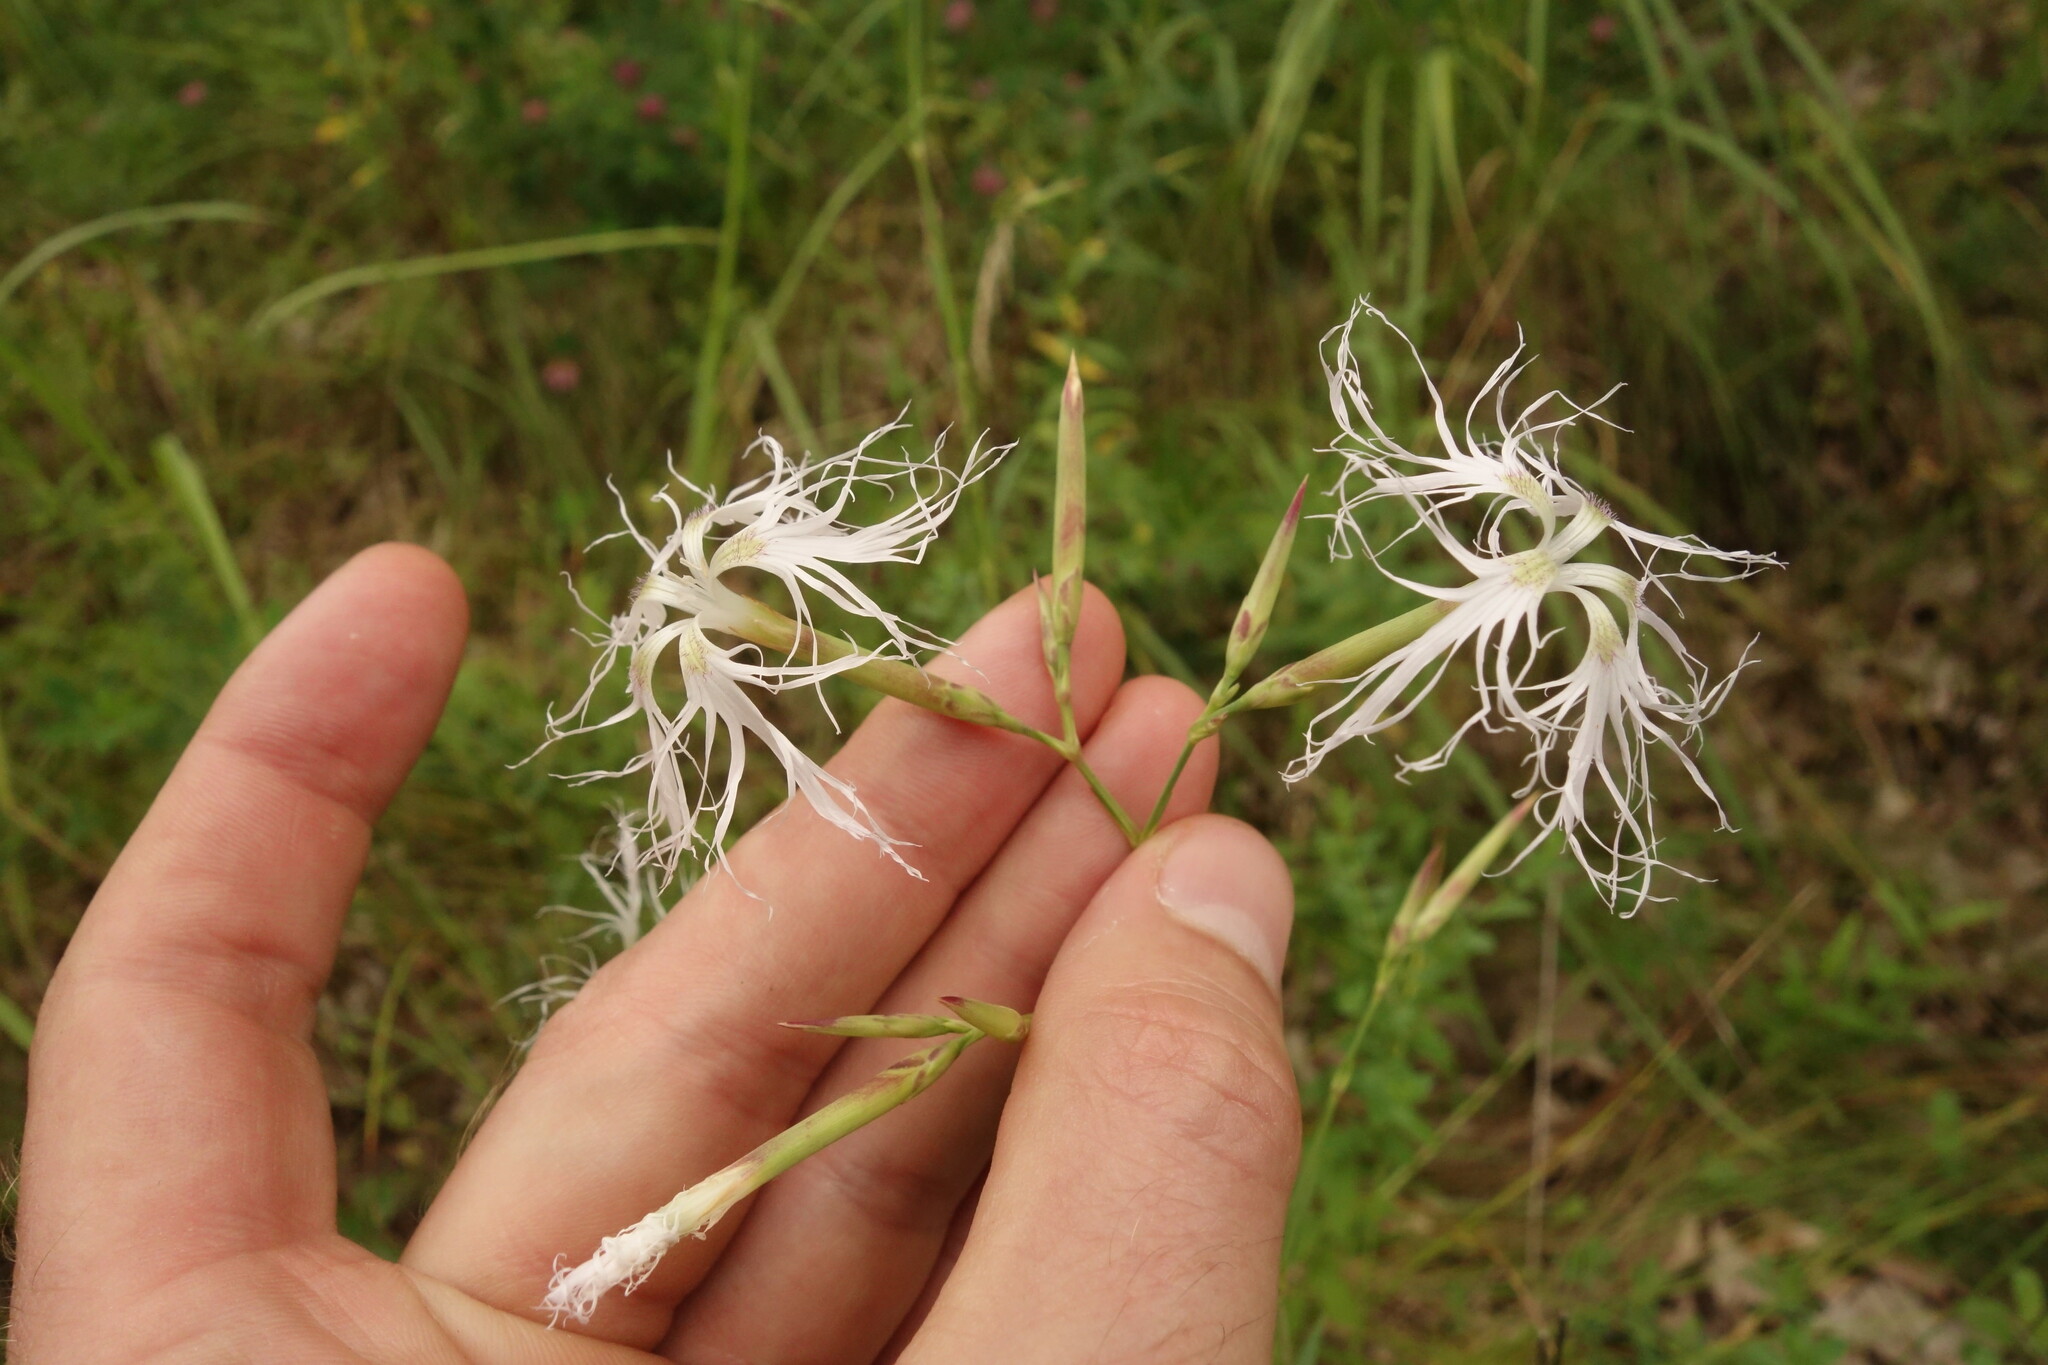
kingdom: Plantae
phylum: Tracheophyta
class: Magnoliopsida
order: Caryophyllales
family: Caryophyllaceae
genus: Dianthus
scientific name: Dianthus superbus
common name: Fringed pink
